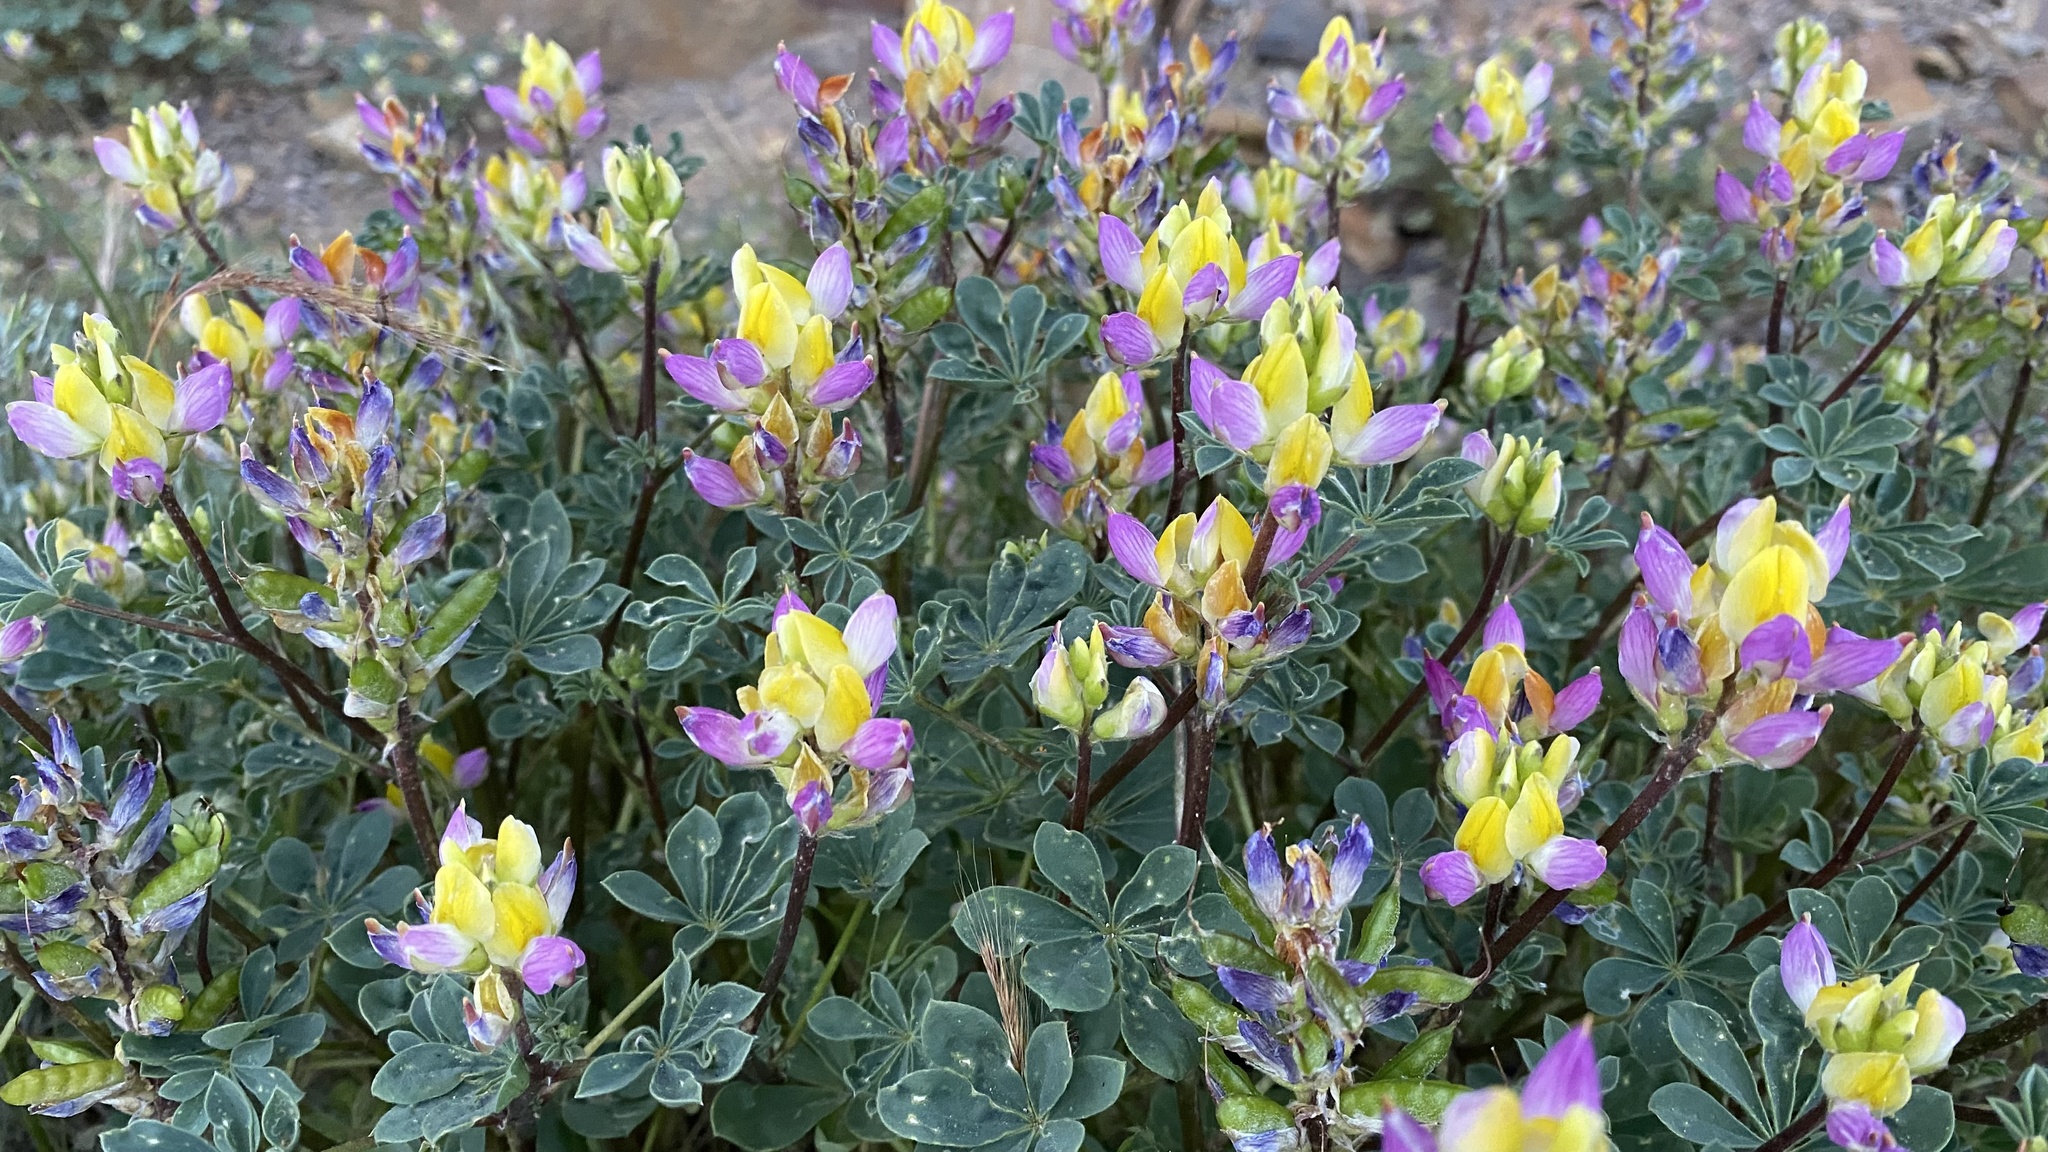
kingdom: Plantae
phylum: Tracheophyta
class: Magnoliopsida
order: Fabales
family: Fabaceae
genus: Lupinus
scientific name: Lupinus stiversii
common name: Harlequin lupine
